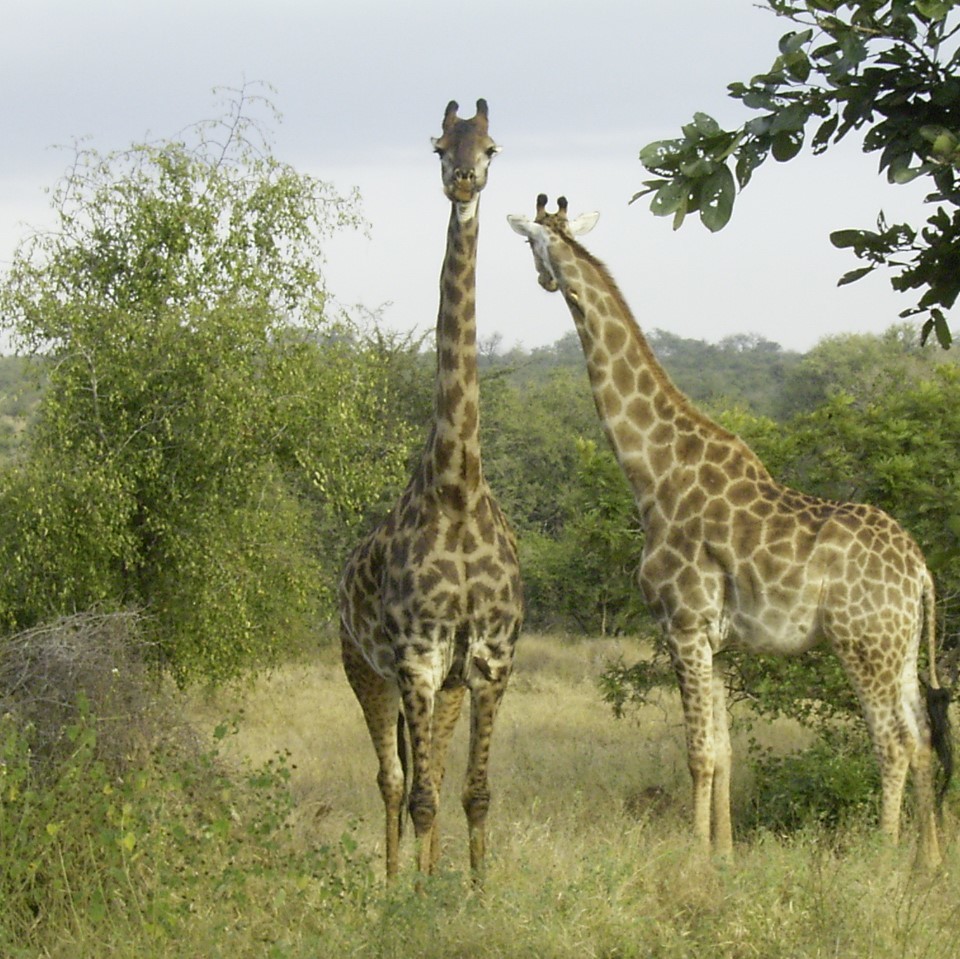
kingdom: Animalia
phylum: Chordata
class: Mammalia
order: Artiodactyla
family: Giraffidae
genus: Giraffa
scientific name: Giraffa giraffa
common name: Southern giraffe
